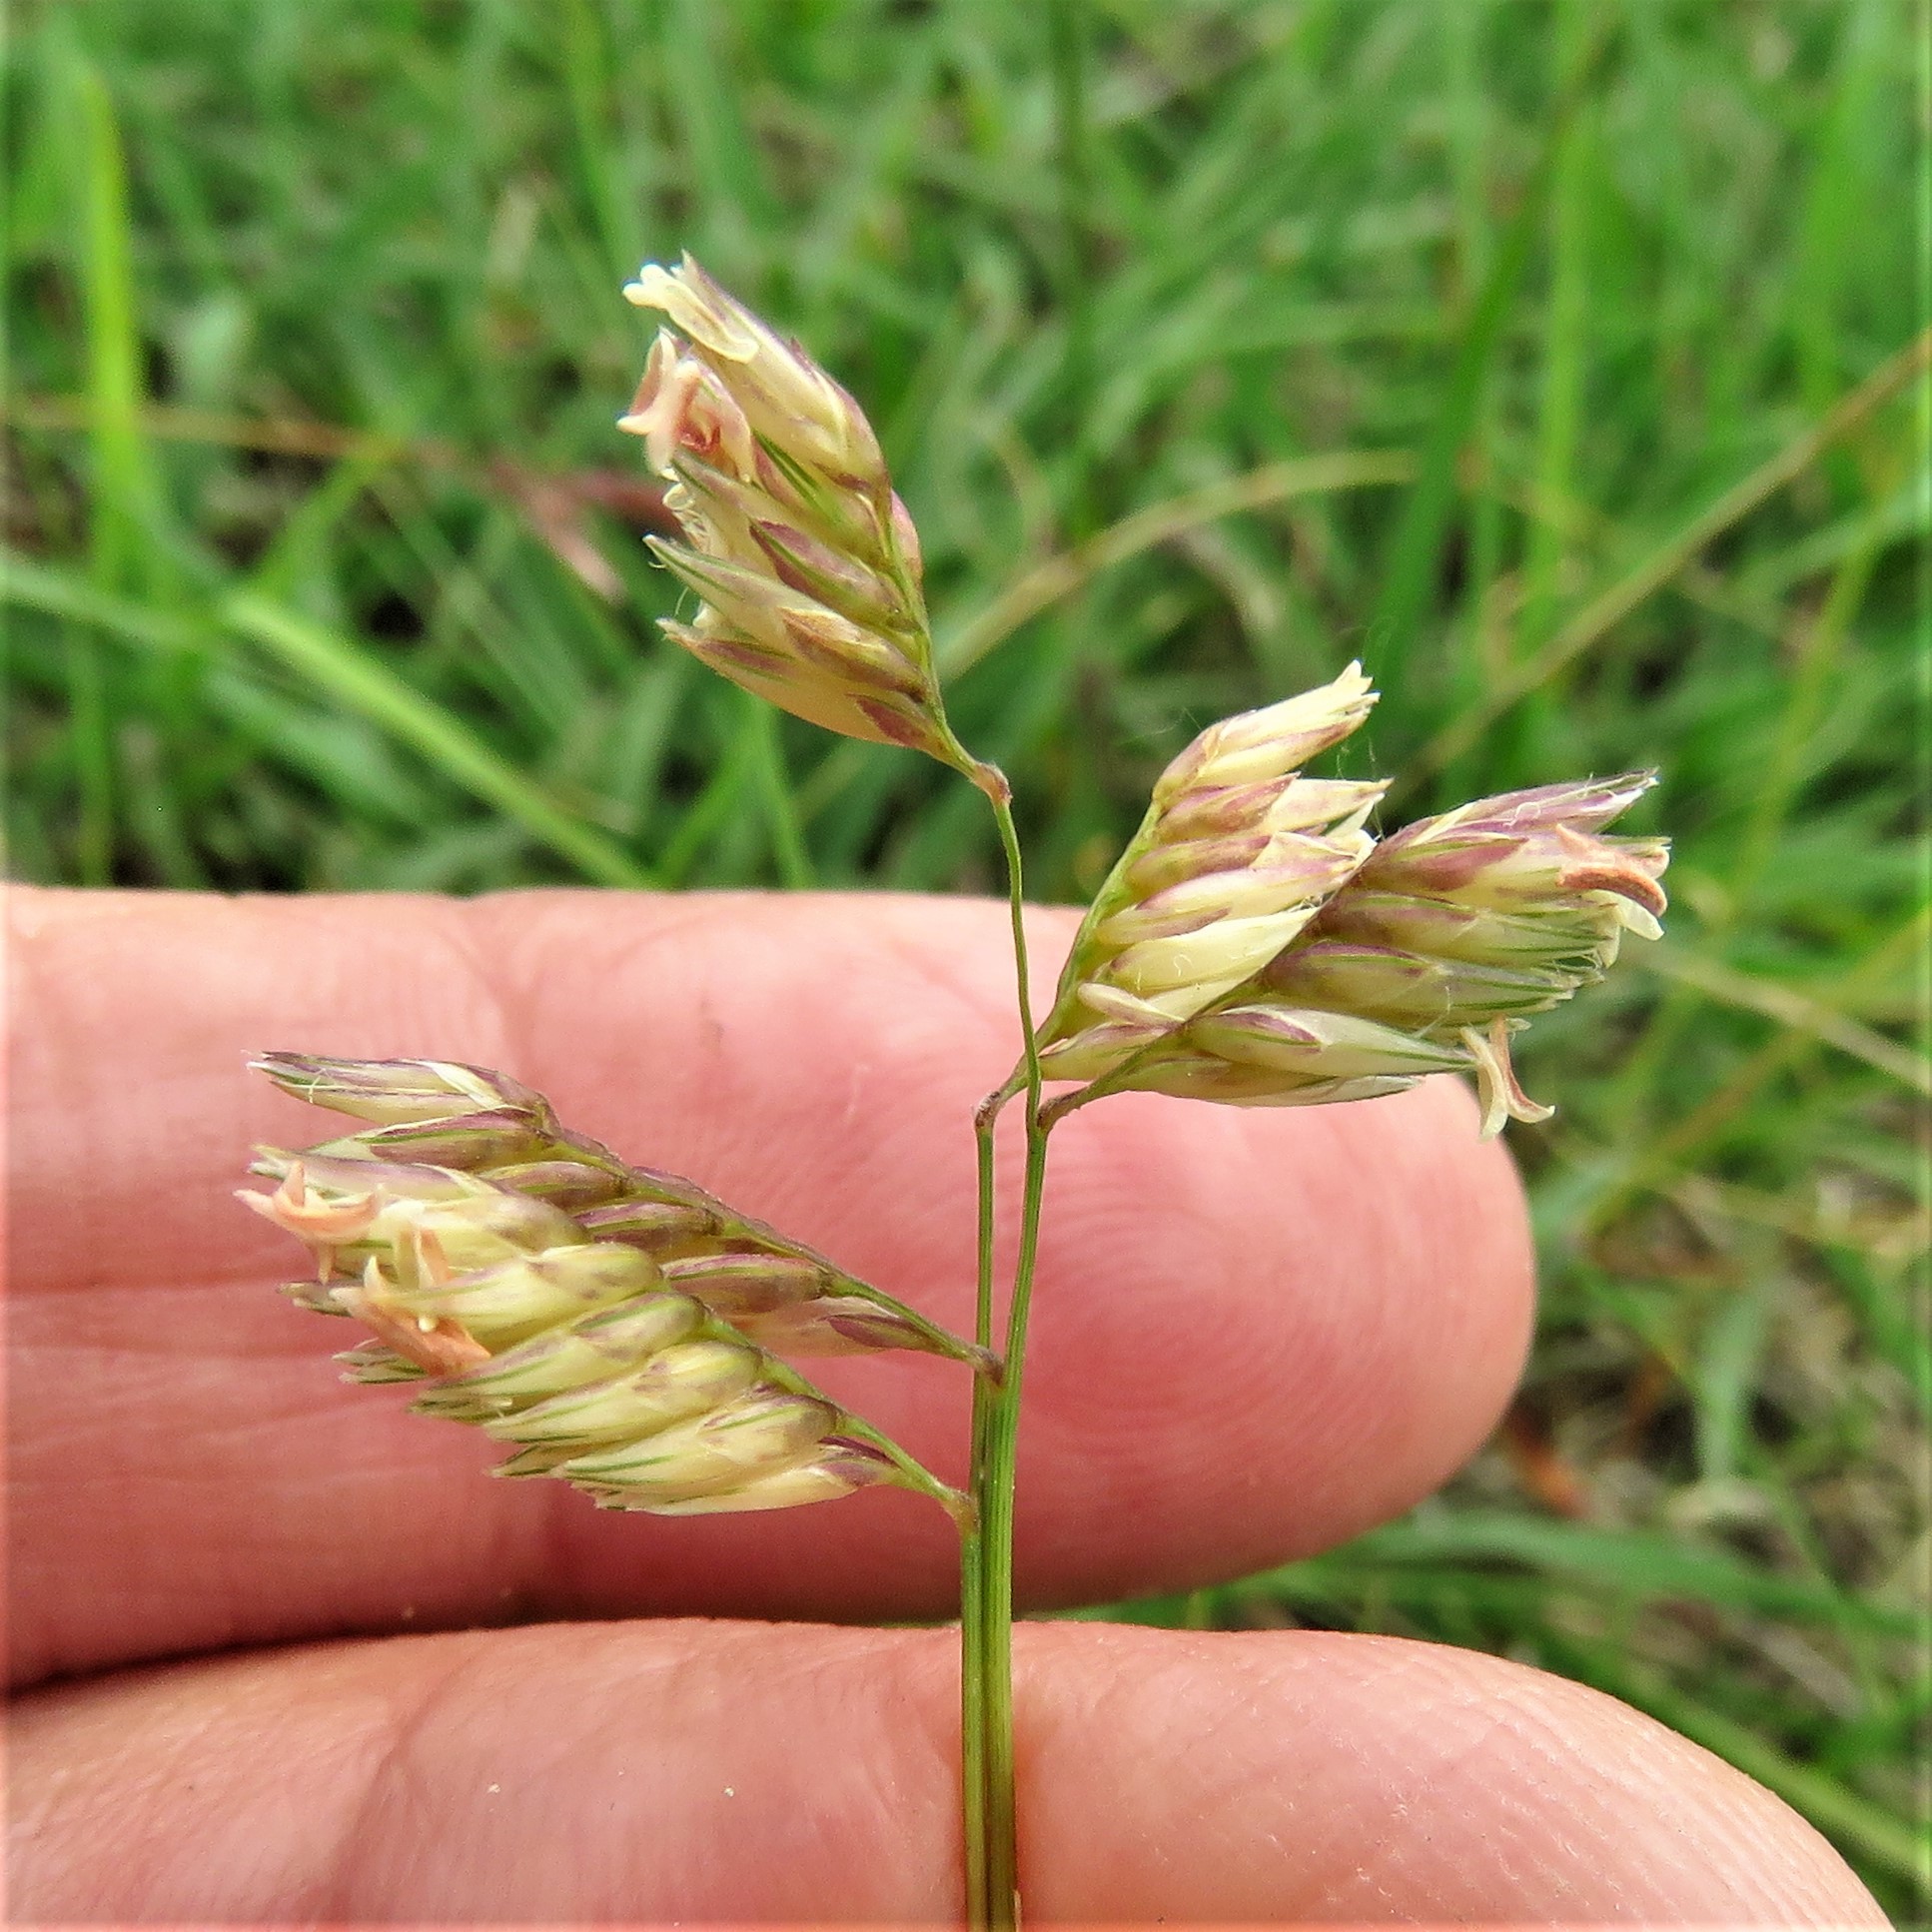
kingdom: Plantae
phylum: Tracheophyta
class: Liliopsida
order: Poales
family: Poaceae
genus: Bouteloua
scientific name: Bouteloua dactyloides
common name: Buffalo grass
